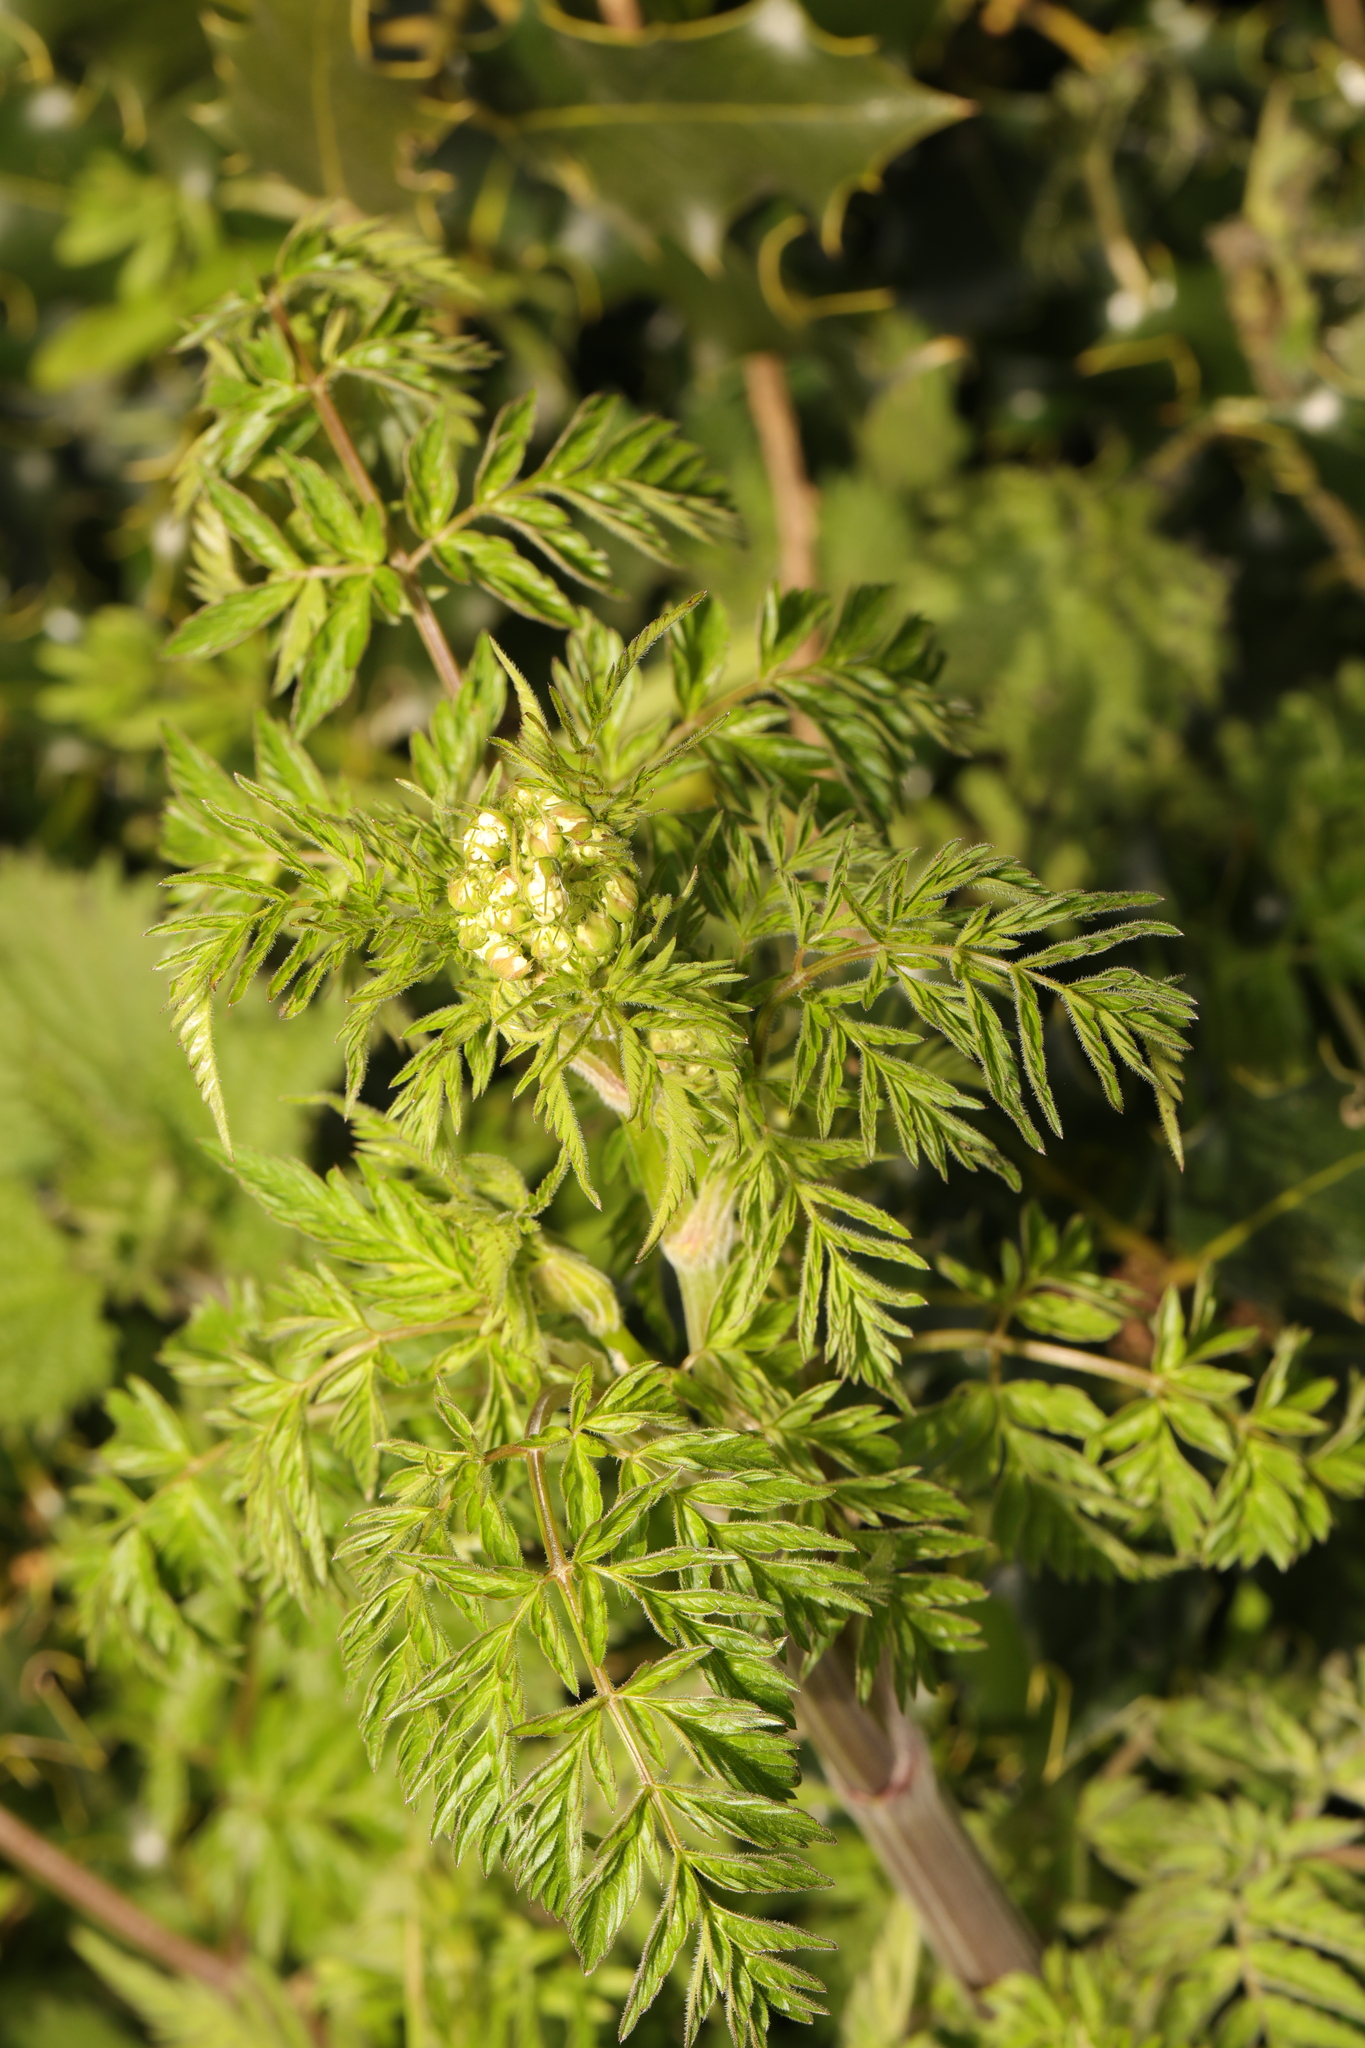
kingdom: Plantae
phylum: Tracheophyta
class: Magnoliopsida
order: Apiales
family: Apiaceae
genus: Anthriscus
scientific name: Anthriscus sylvestris
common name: Cow parsley
